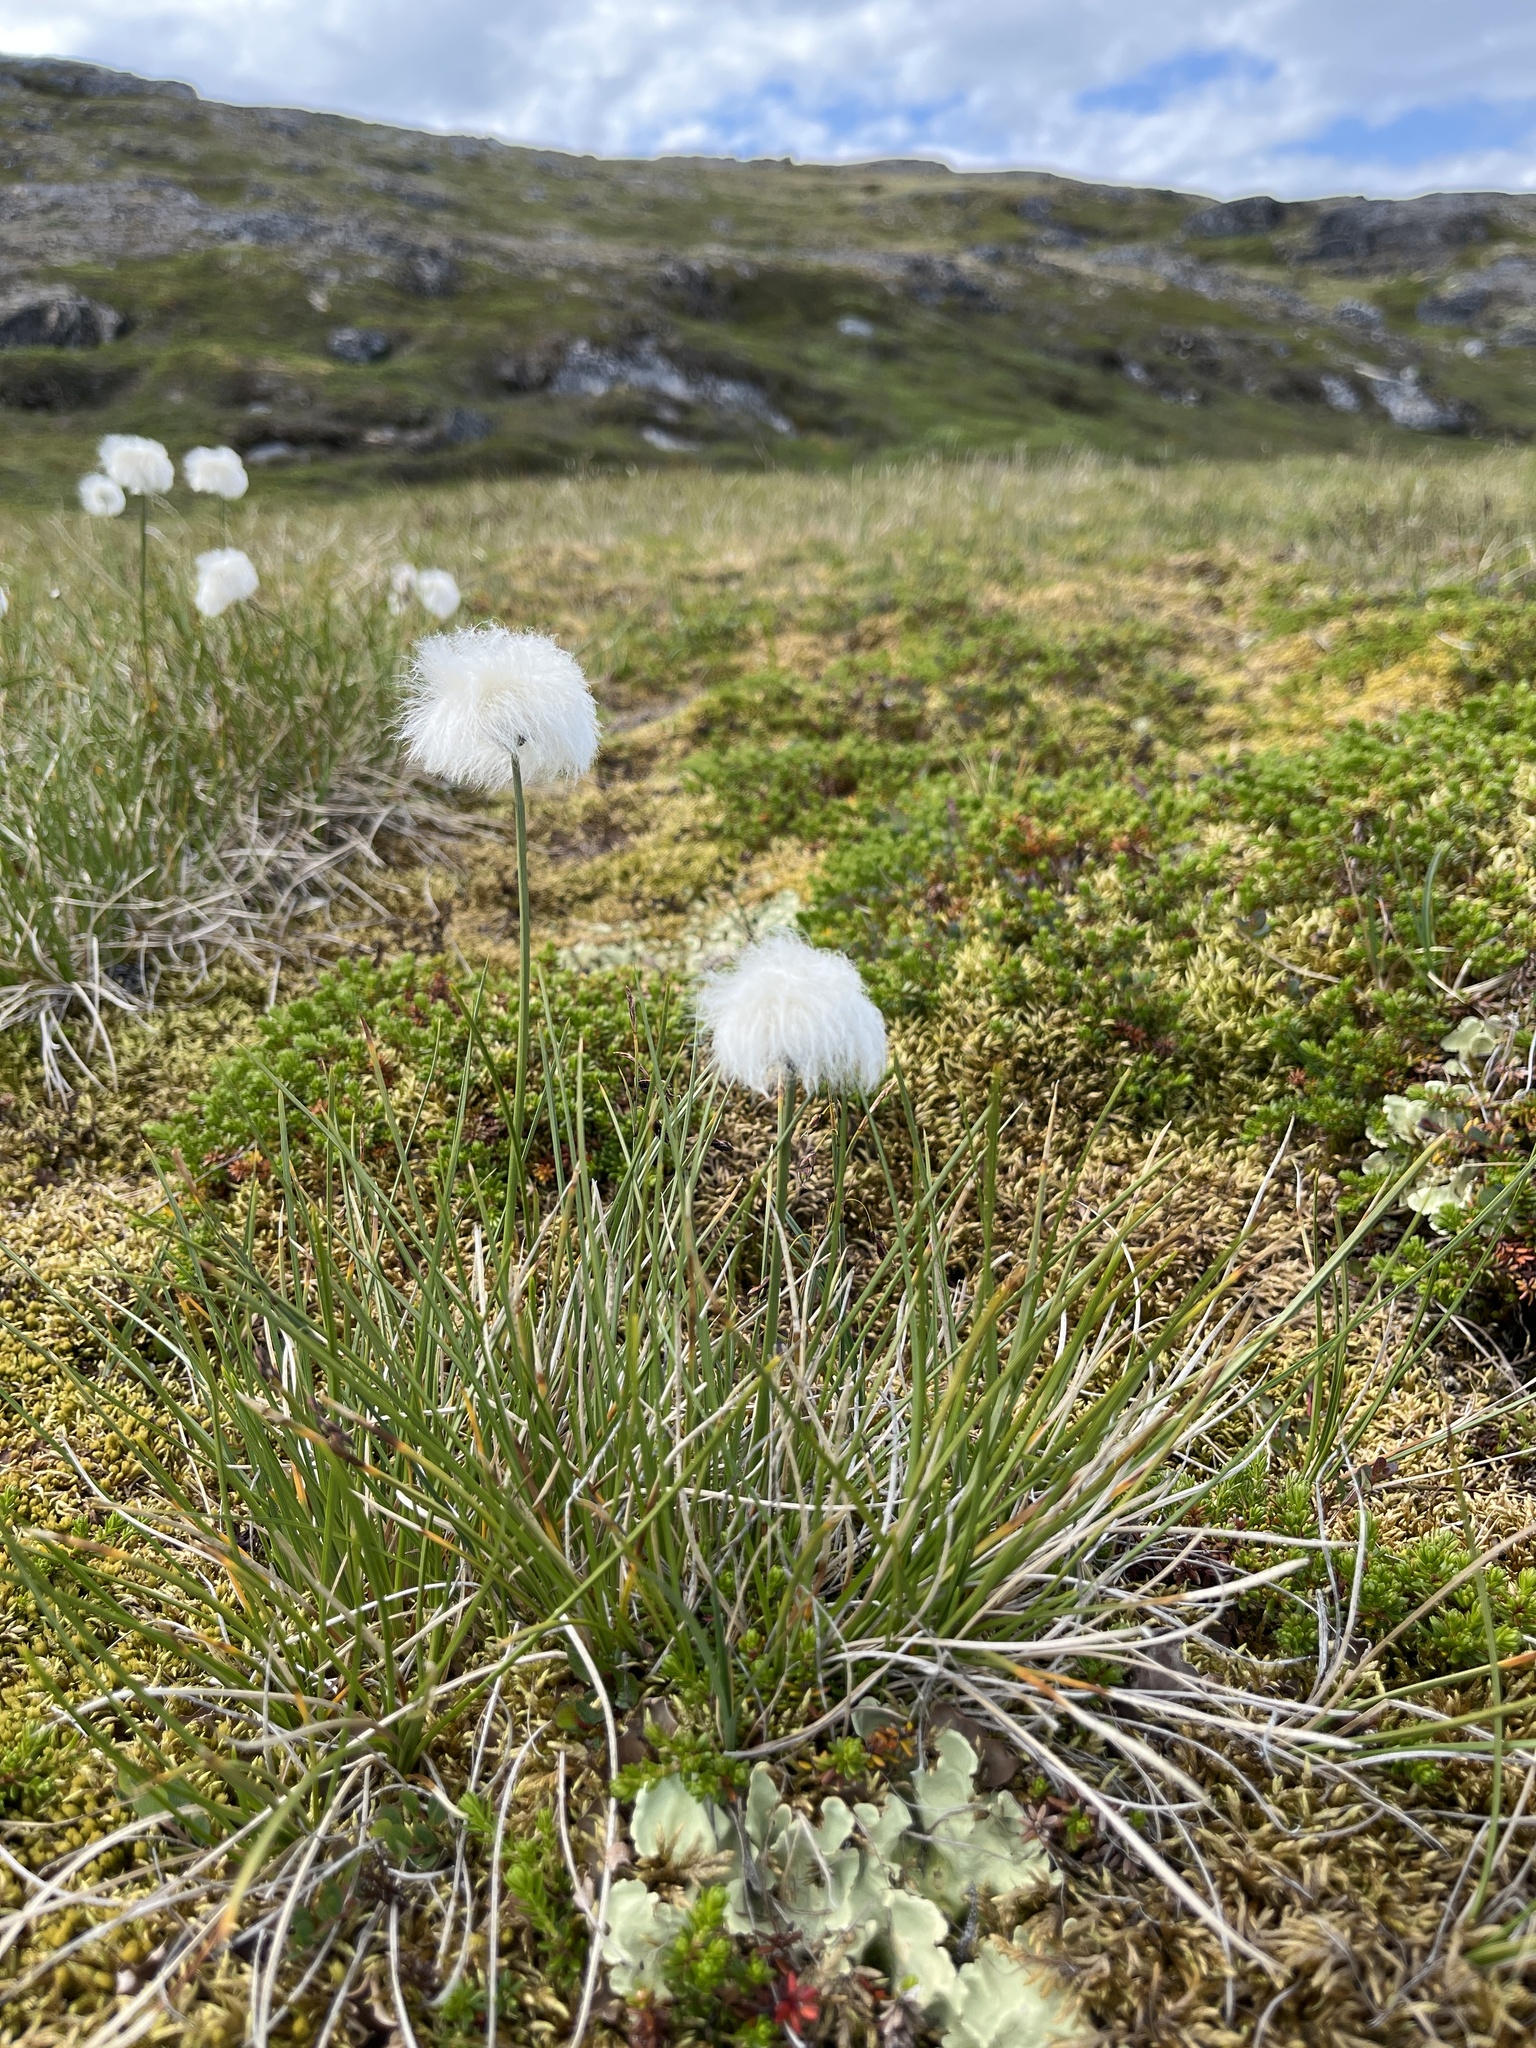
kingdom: Plantae
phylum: Tracheophyta
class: Liliopsida
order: Poales
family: Cyperaceae
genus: Eriophorum
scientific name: Eriophorum vaginatum
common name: Hare's-tail cottongrass
